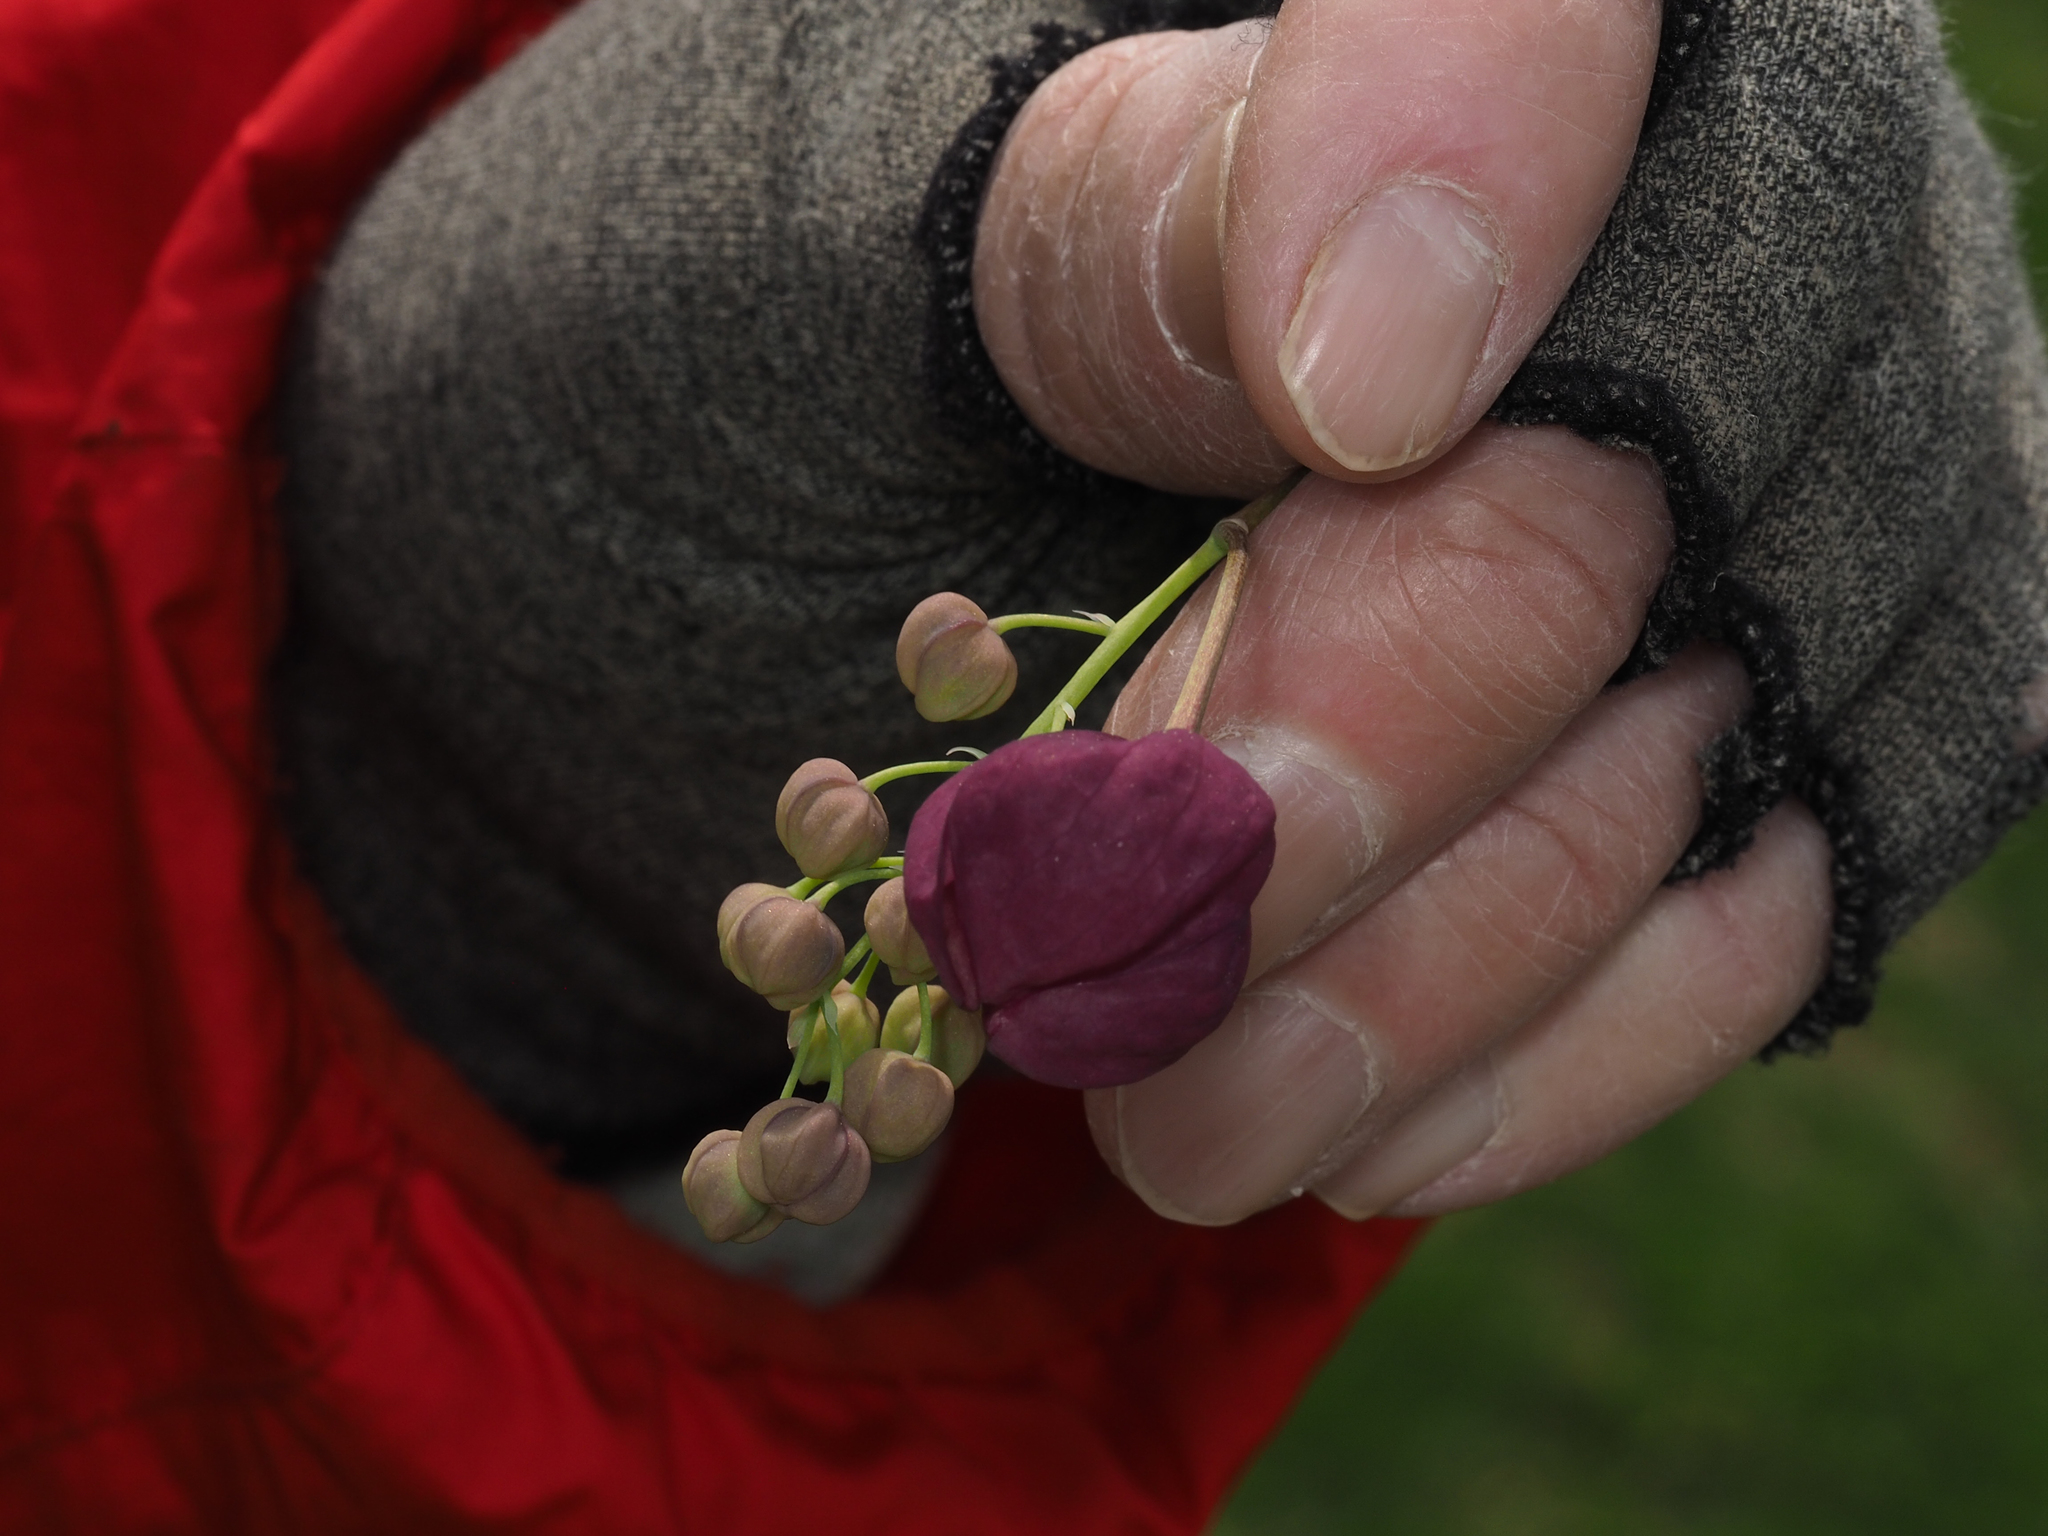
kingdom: Plantae
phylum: Tracheophyta
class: Magnoliopsida
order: Ranunculales
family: Lardizabalaceae
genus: Akebia
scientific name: Akebia quinata
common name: Five-leaf akebia
